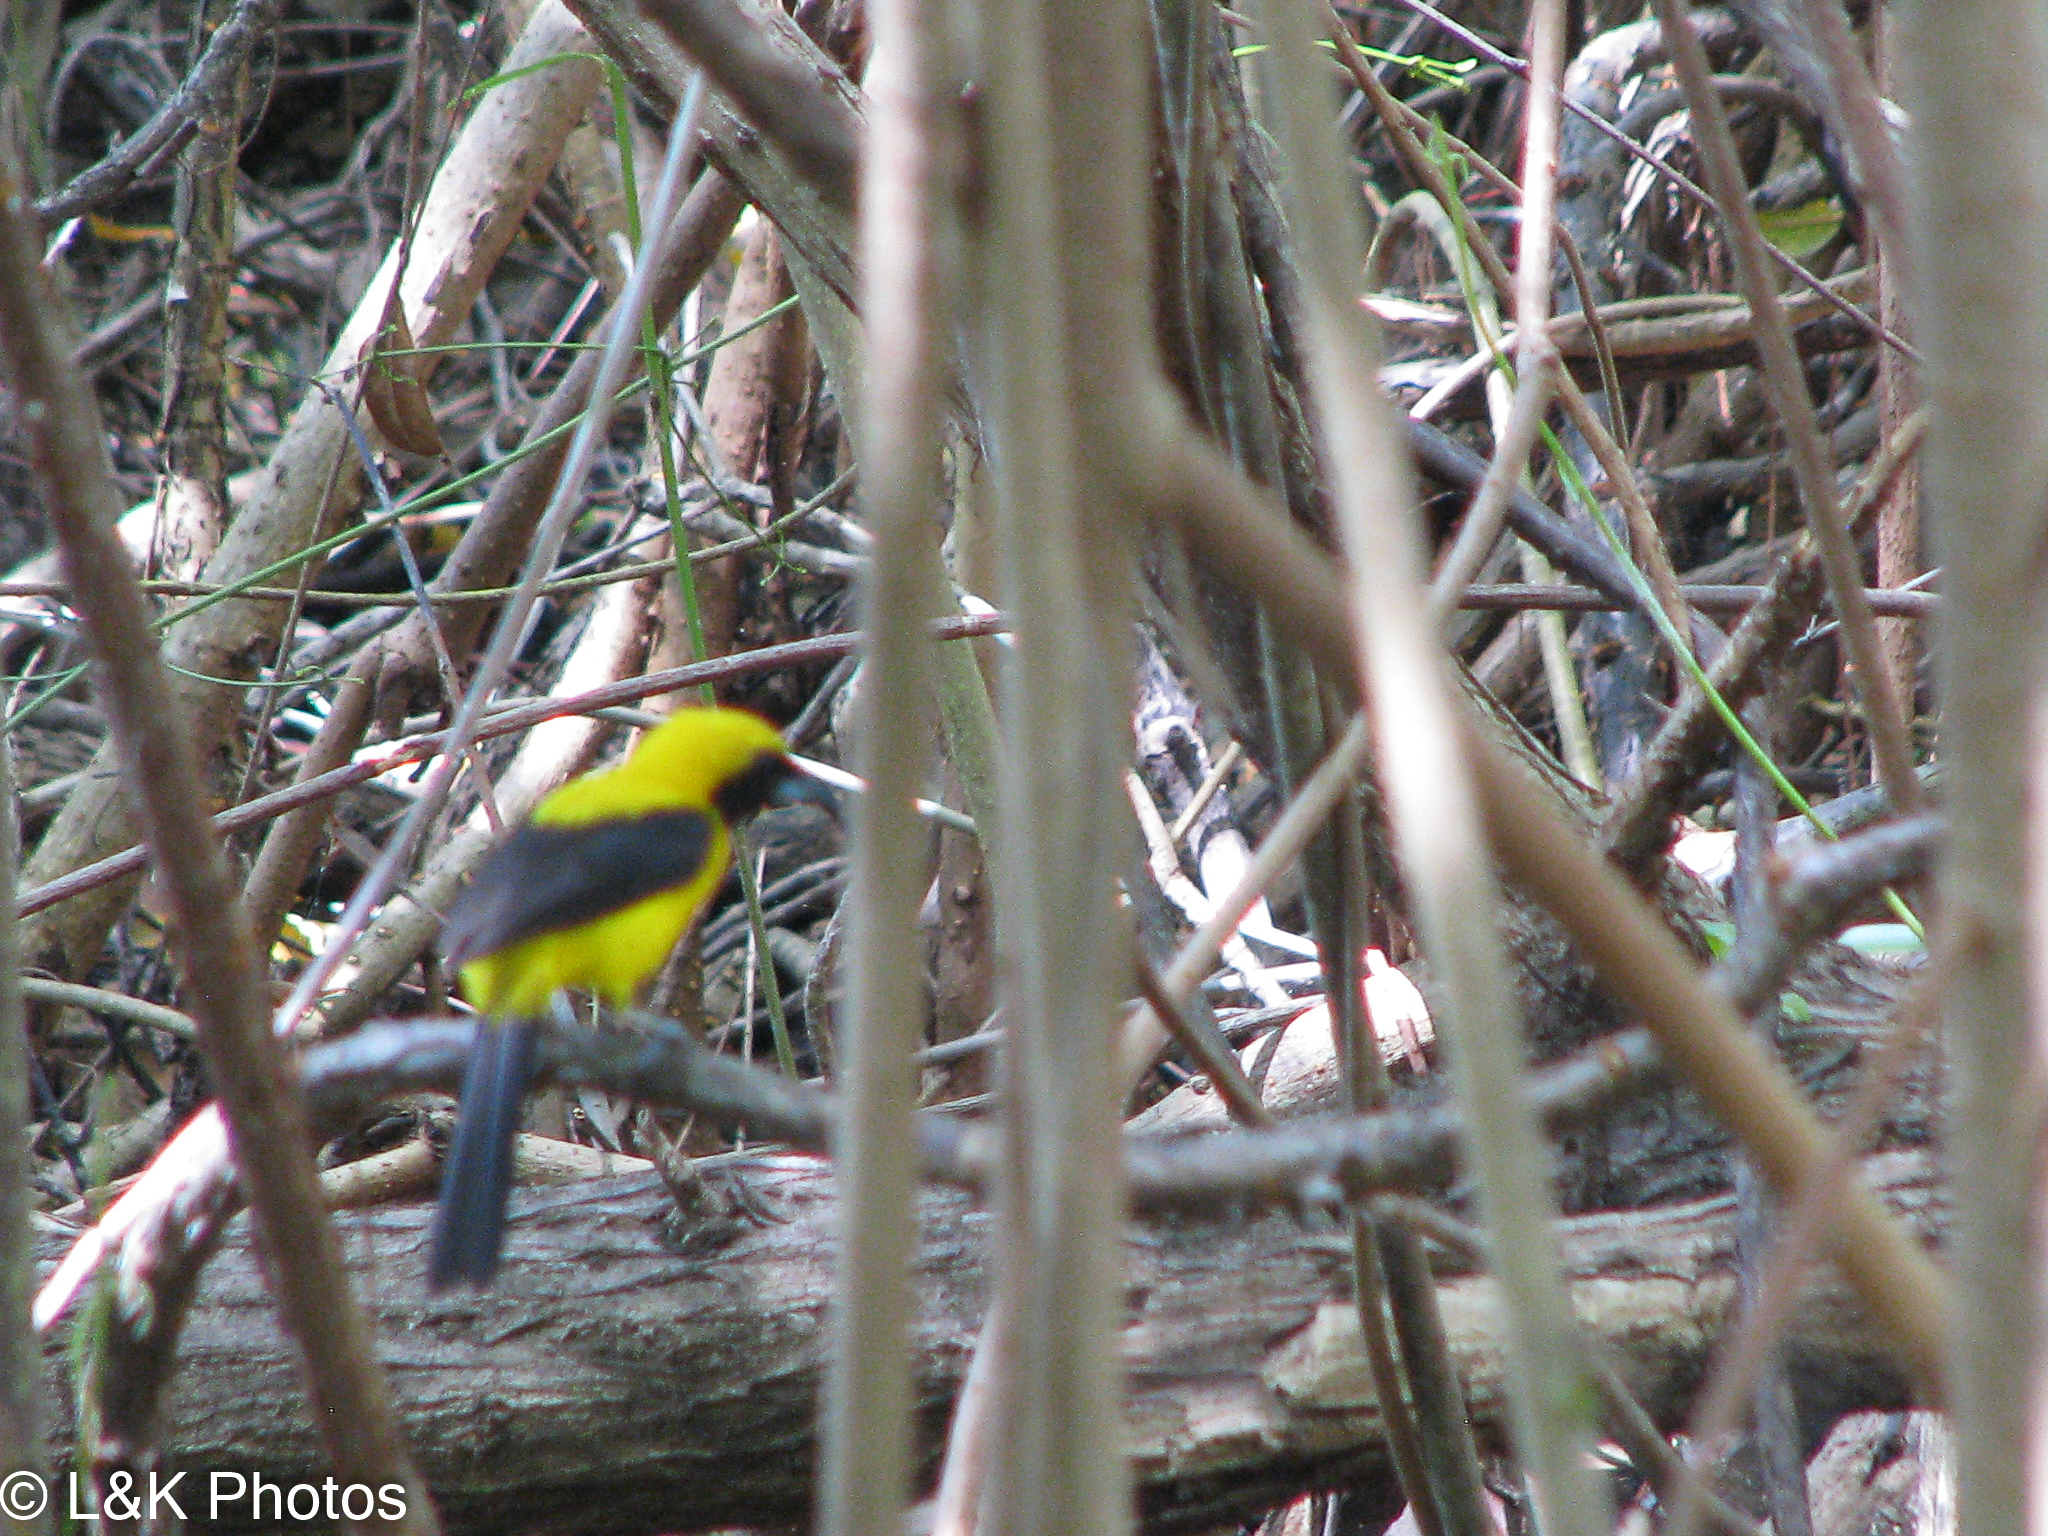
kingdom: Animalia
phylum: Chordata
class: Aves
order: Passeriformes
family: Icteridae
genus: Icterus
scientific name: Icterus chrysater
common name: Yellow-backed oriole
